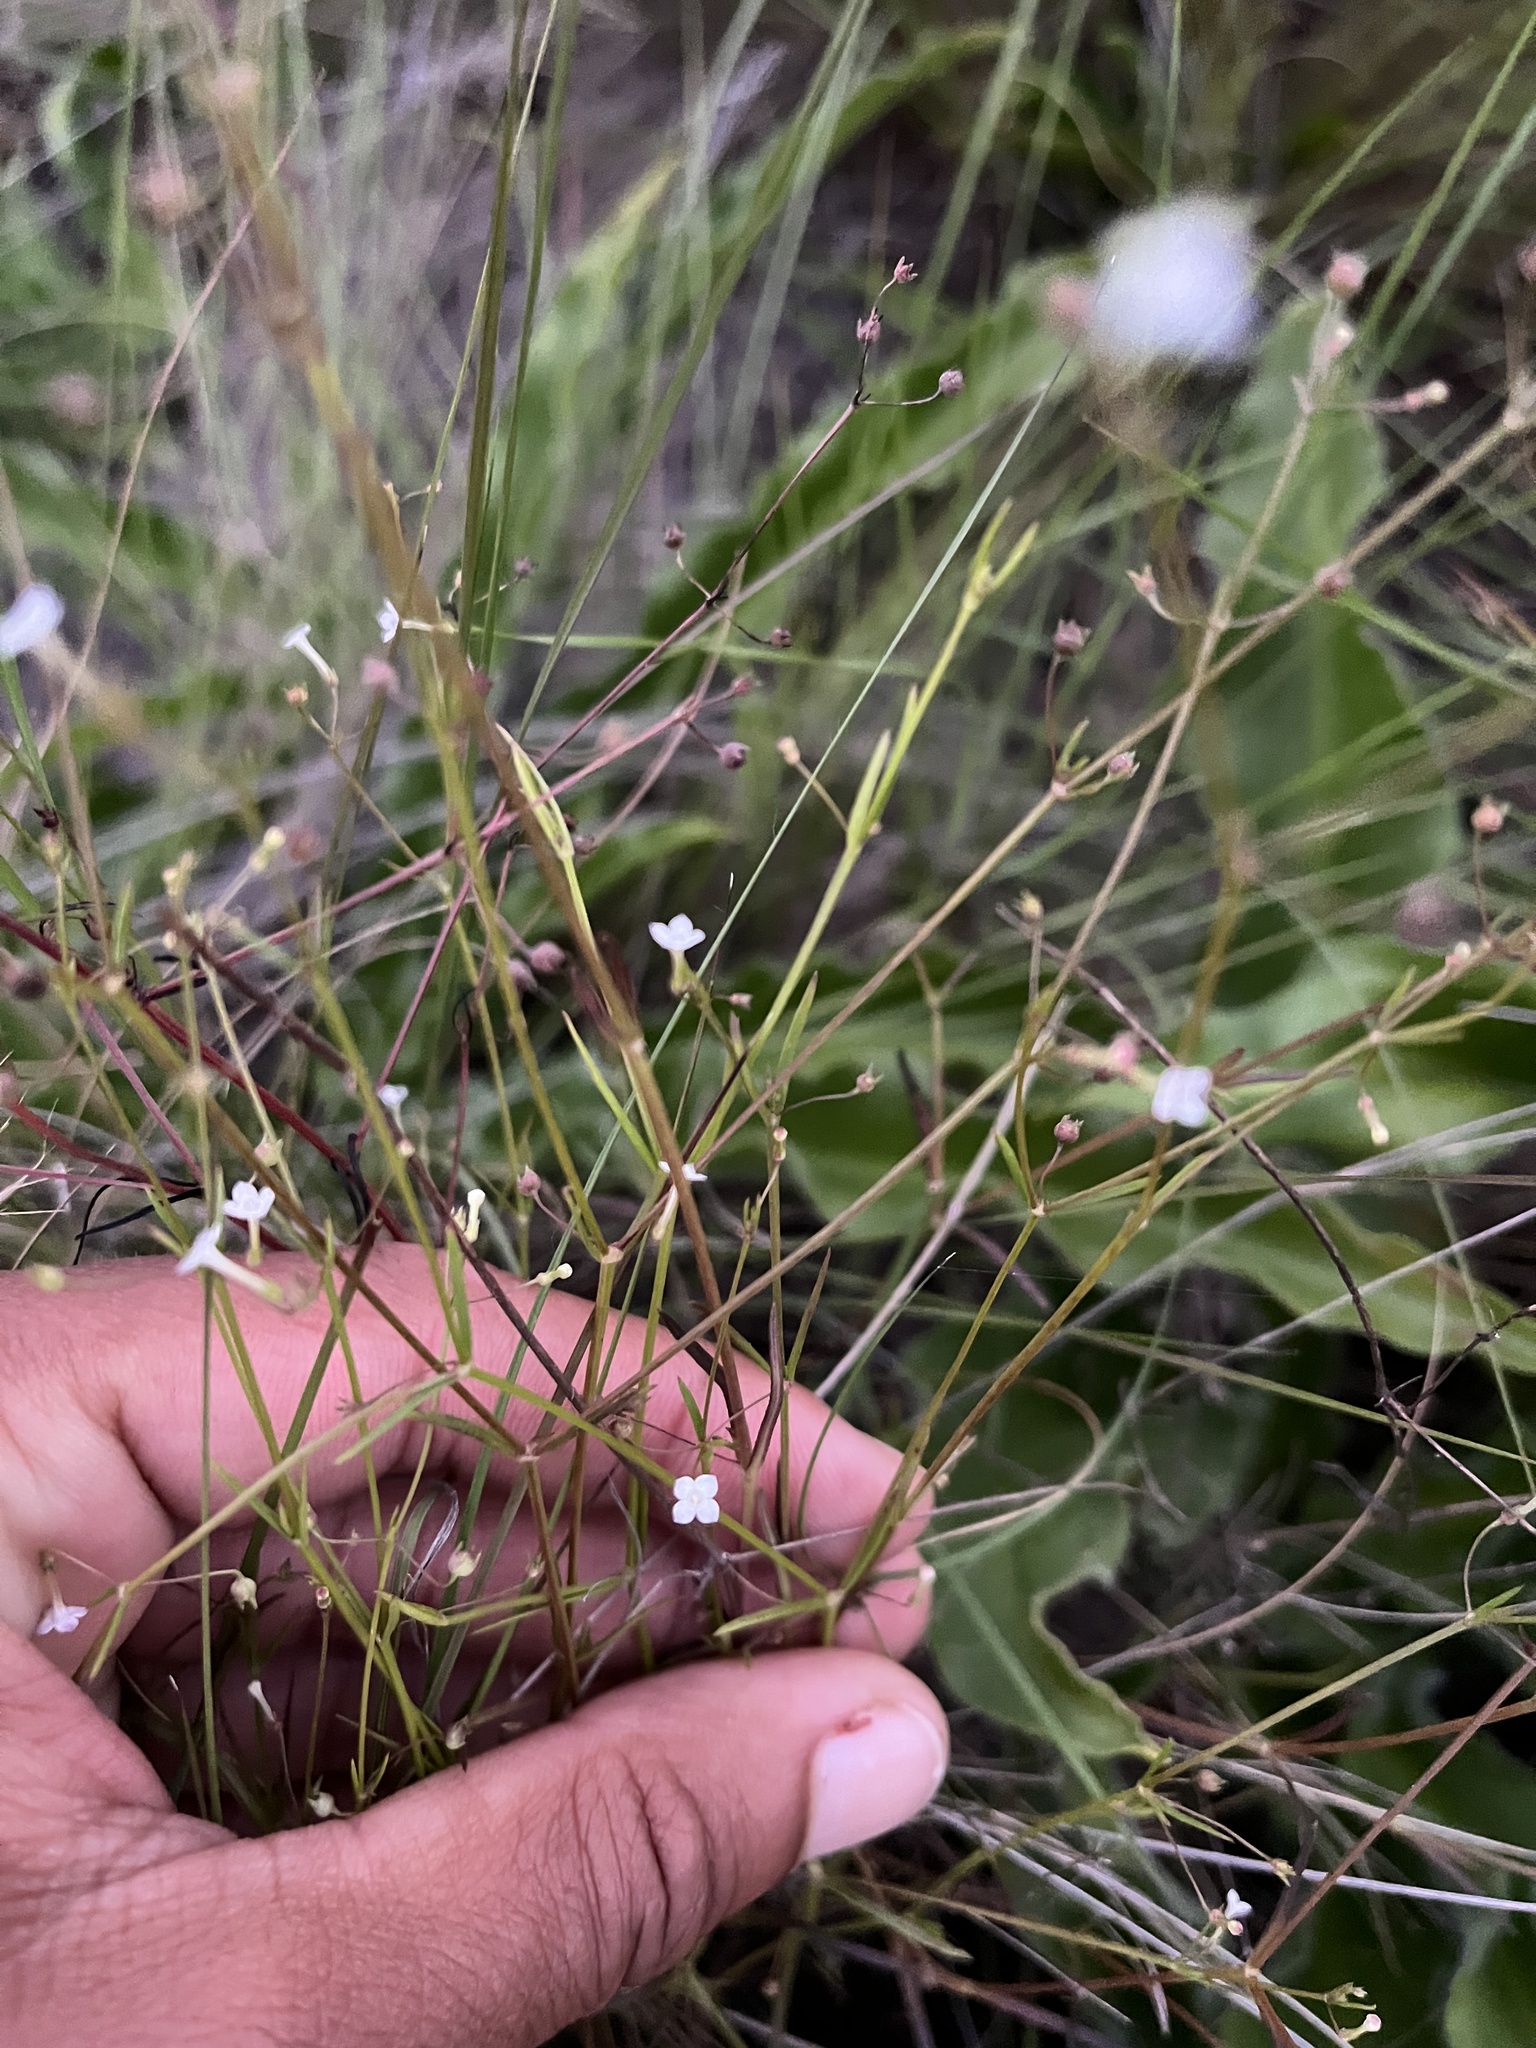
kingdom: Plantae
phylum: Tracheophyta
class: Magnoliopsida
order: Gentianales
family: Rubiaceae
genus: Oldenlandia
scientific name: Oldenlandia herbacea
